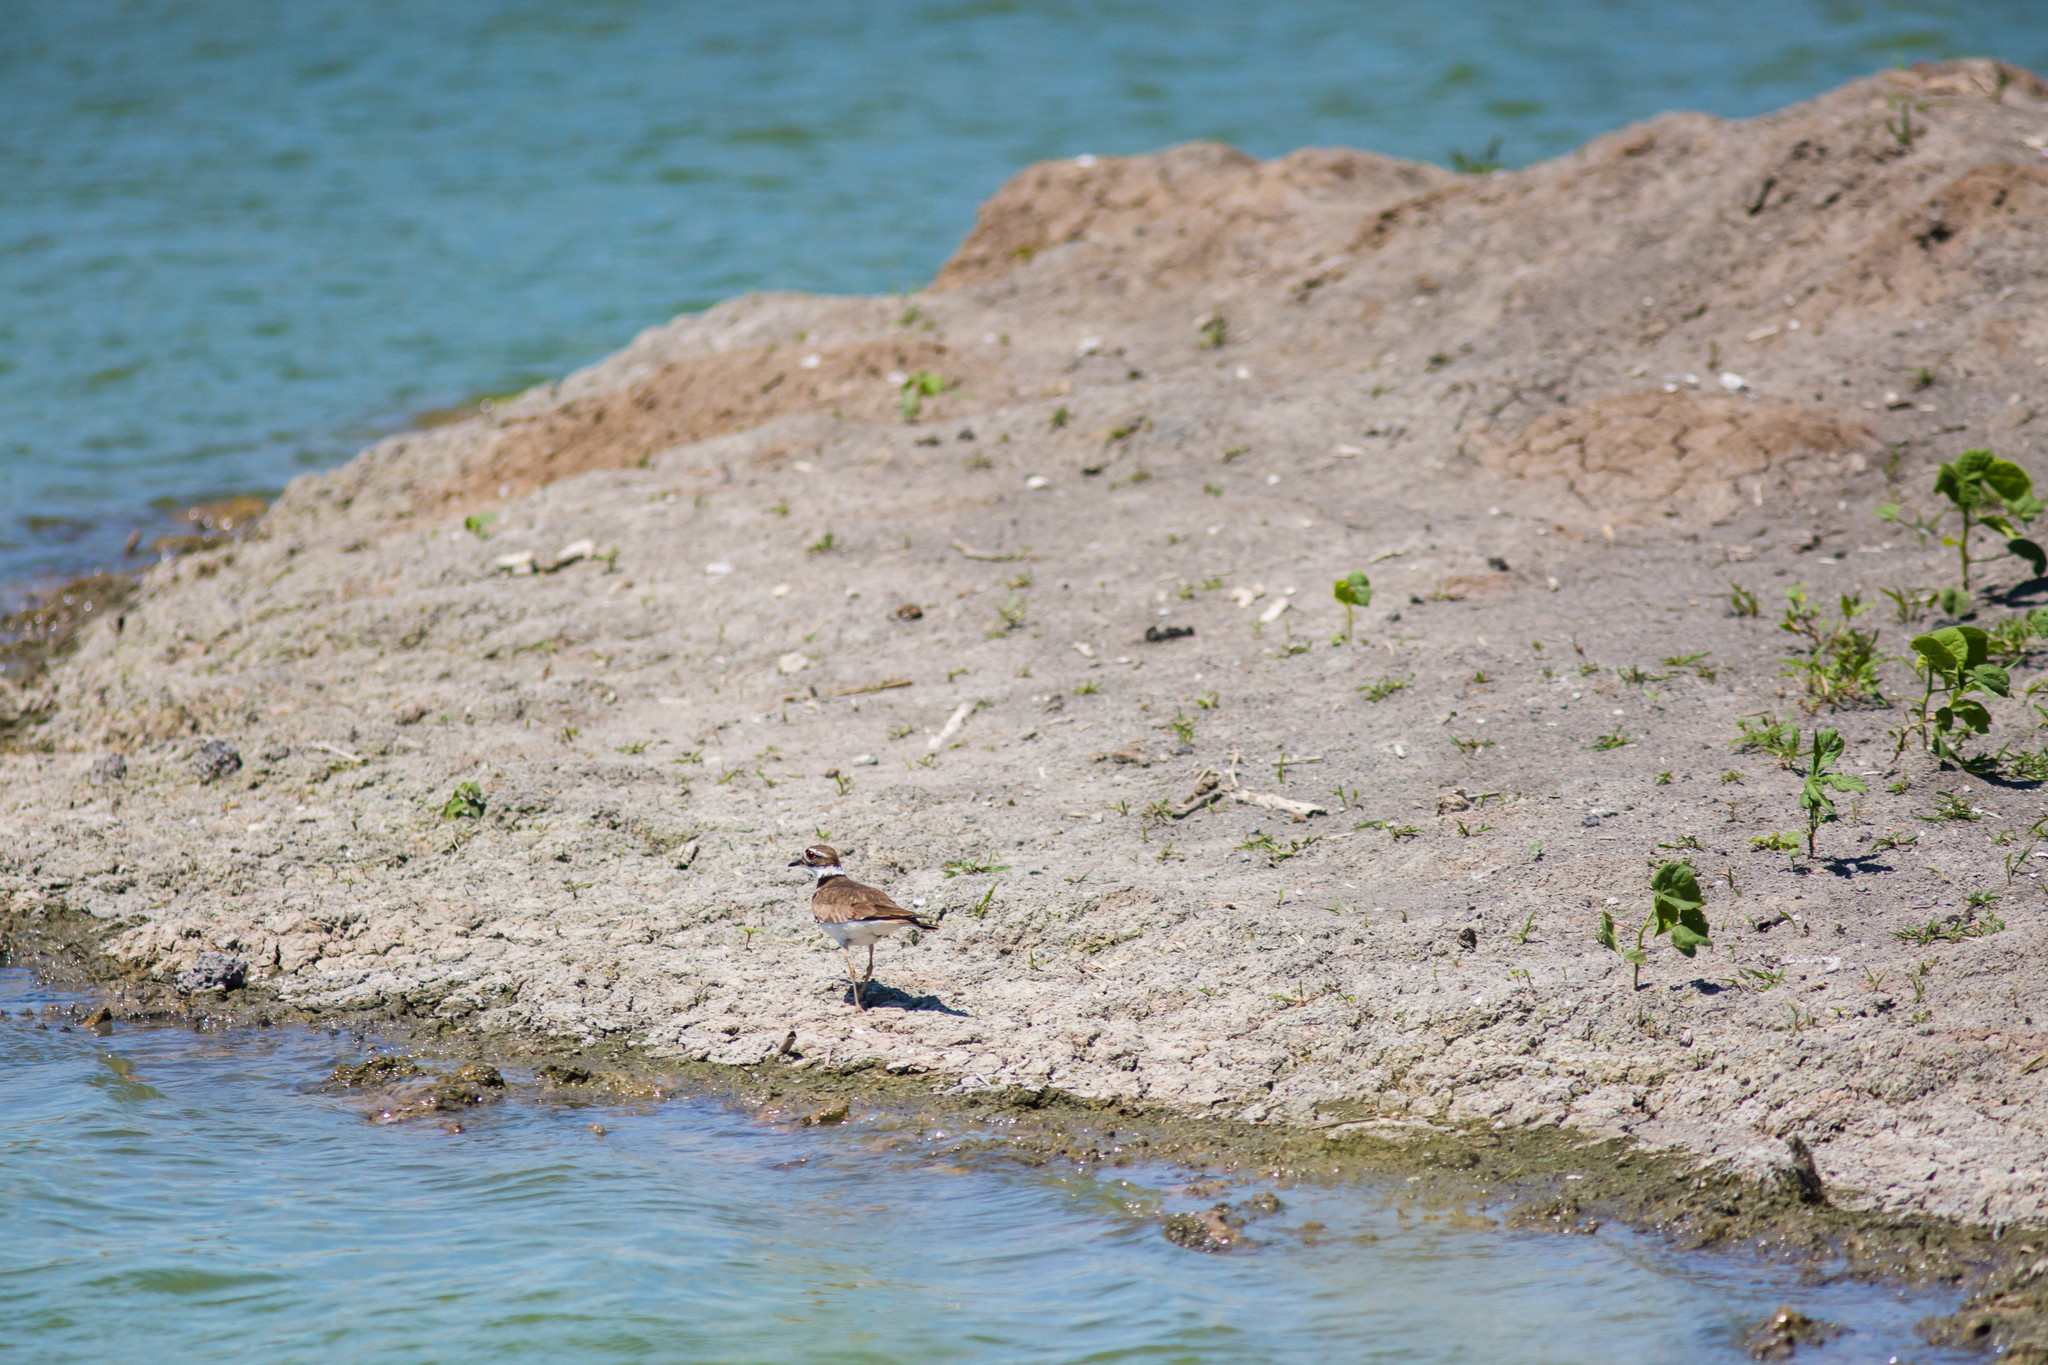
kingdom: Animalia
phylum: Chordata
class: Aves
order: Charadriiformes
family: Charadriidae
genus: Charadrius
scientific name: Charadrius vociferus
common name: Killdeer
